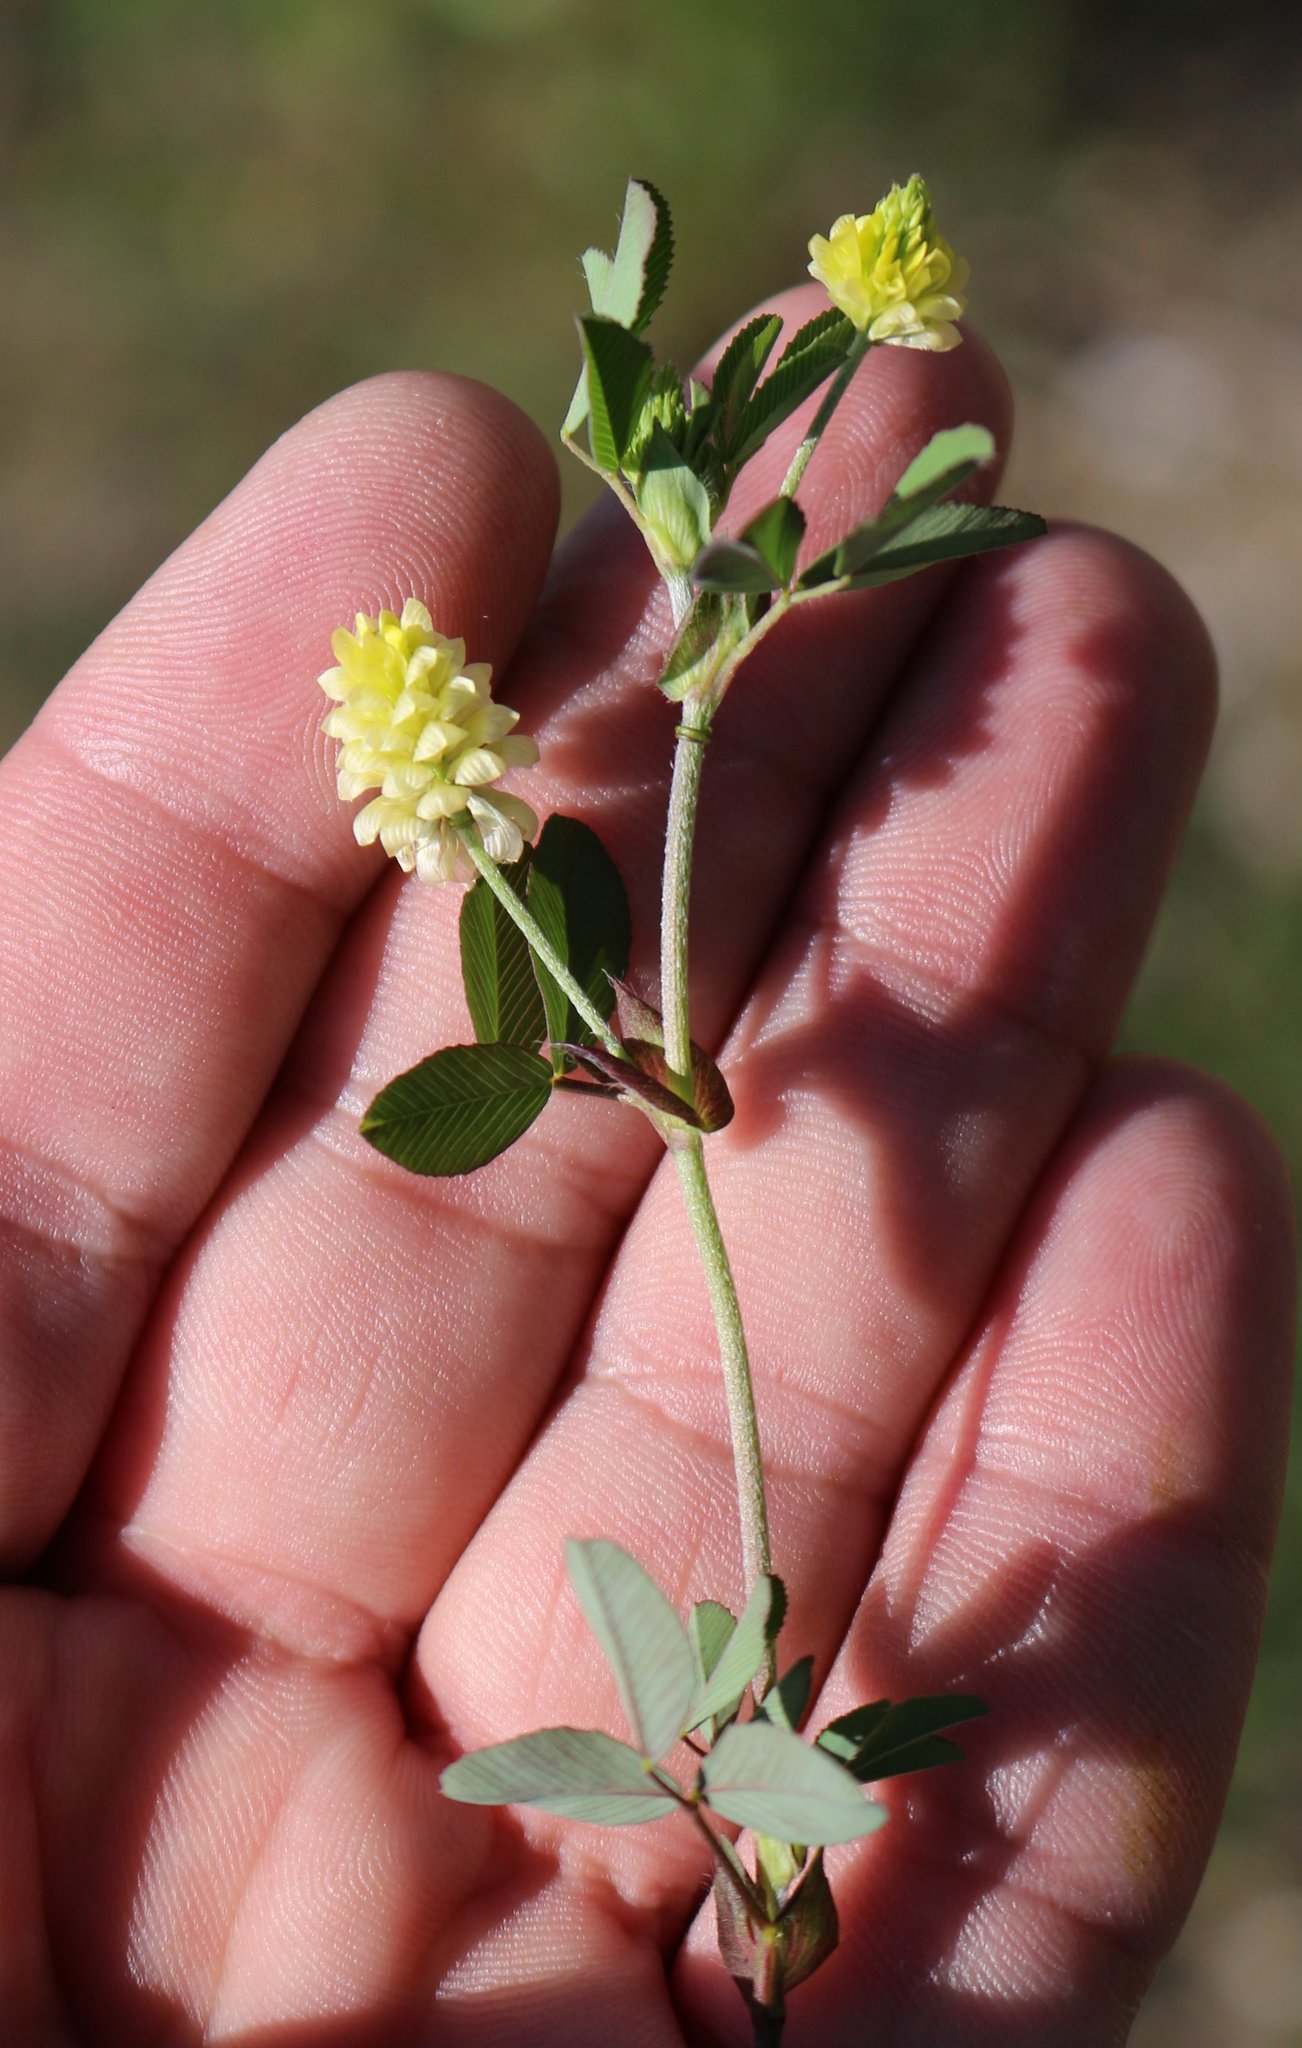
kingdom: Plantae
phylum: Tracheophyta
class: Magnoliopsida
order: Fabales
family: Fabaceae
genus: Trifolium
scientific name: Trifolium campestre
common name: Field clover
